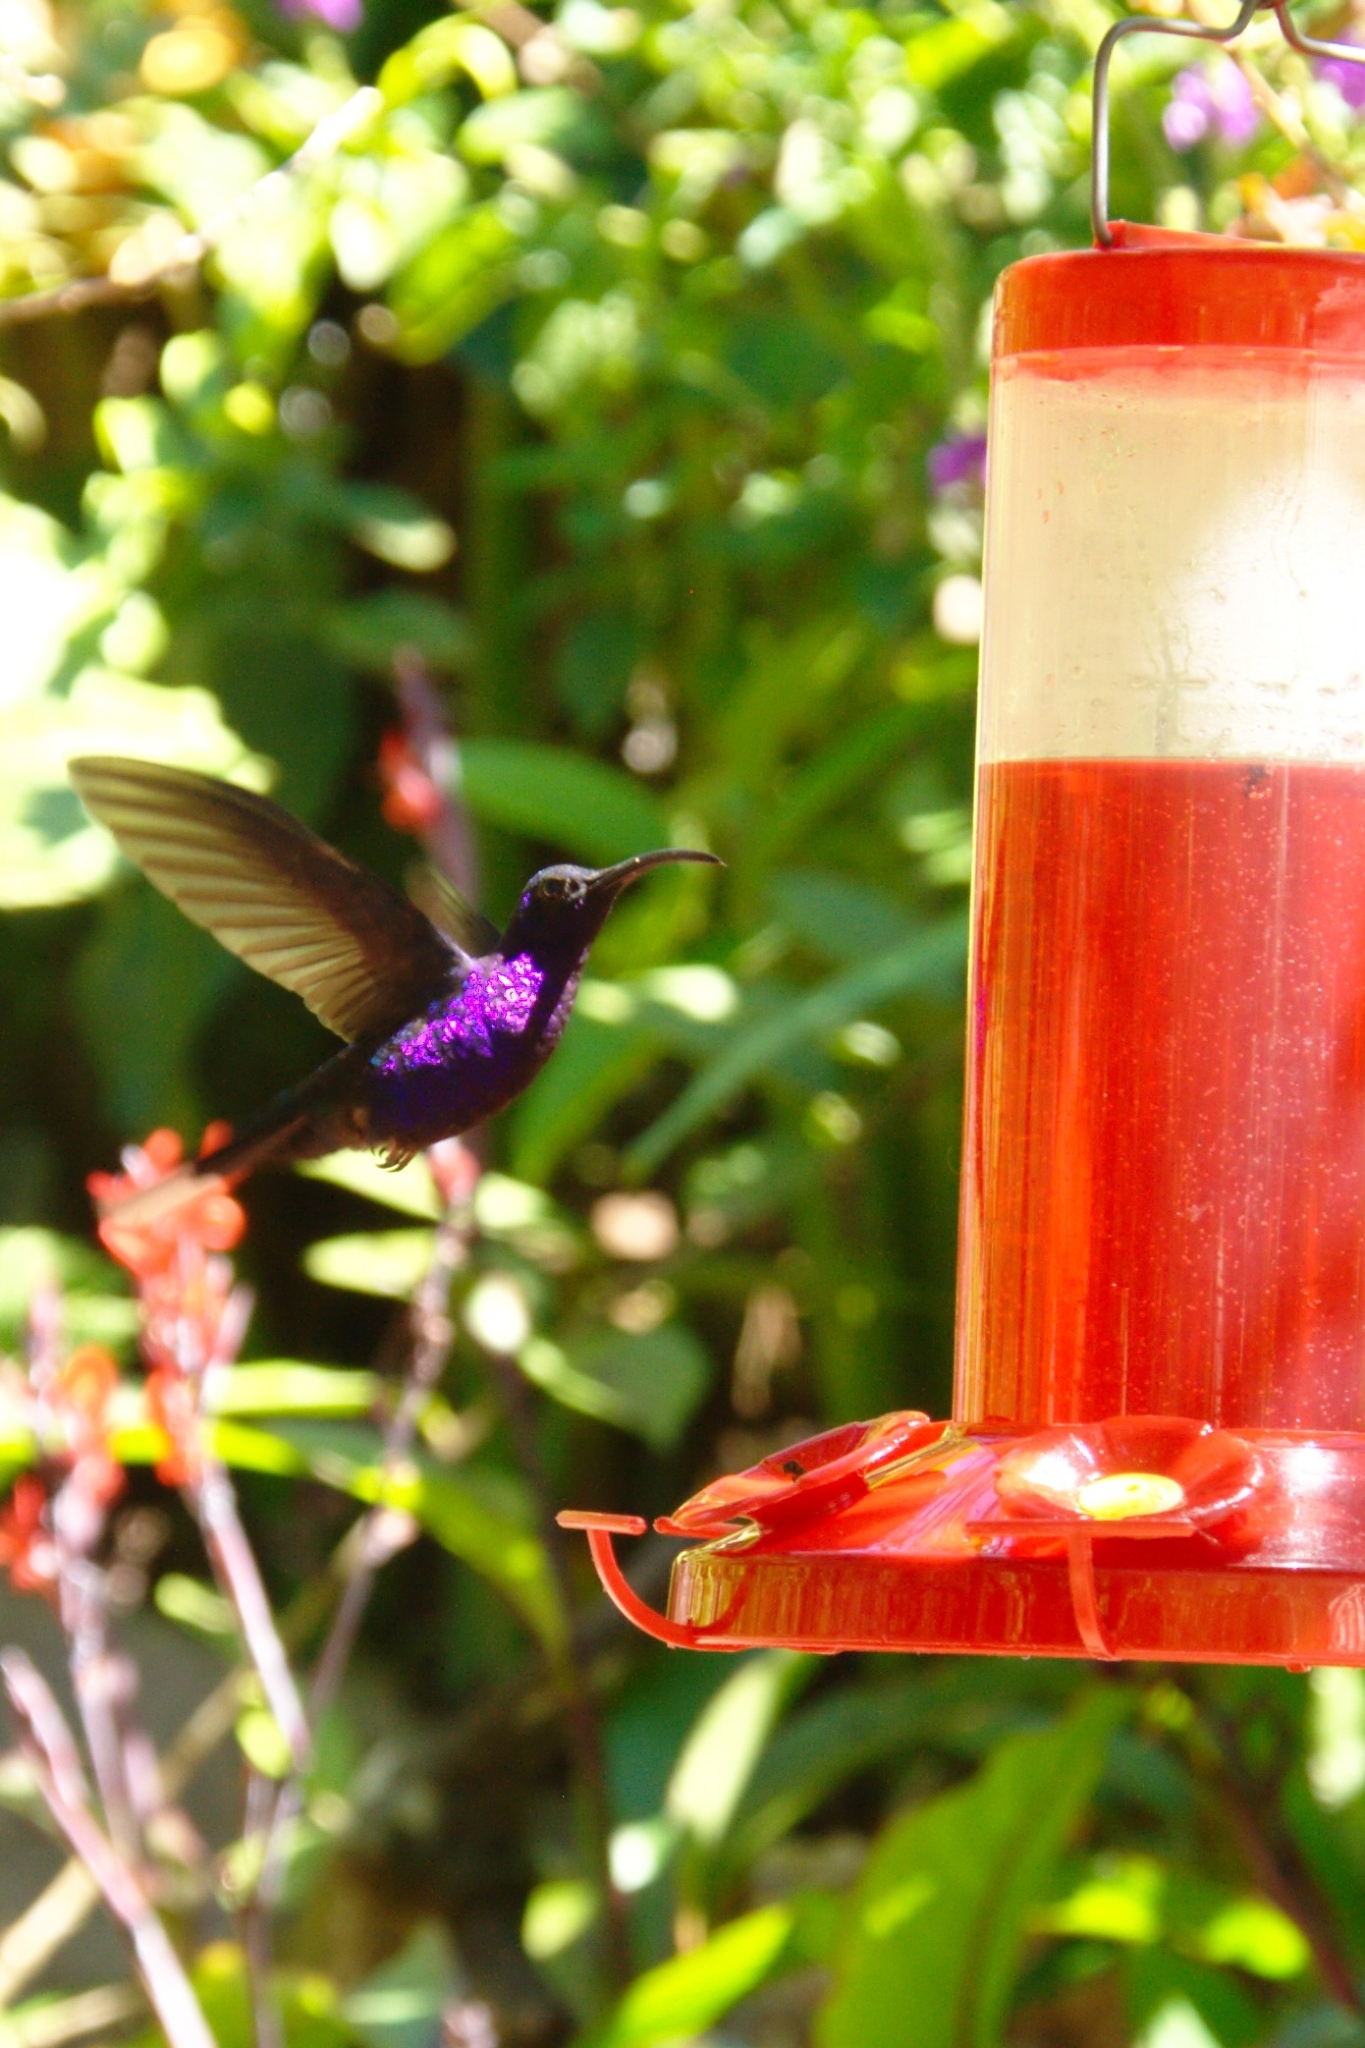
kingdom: Animalia
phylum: Chordata
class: Aves
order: Apodiformes
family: Trochilidae
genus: Campylopterus
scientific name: Campylopterus hemileucurus
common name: Violet sabrewing
